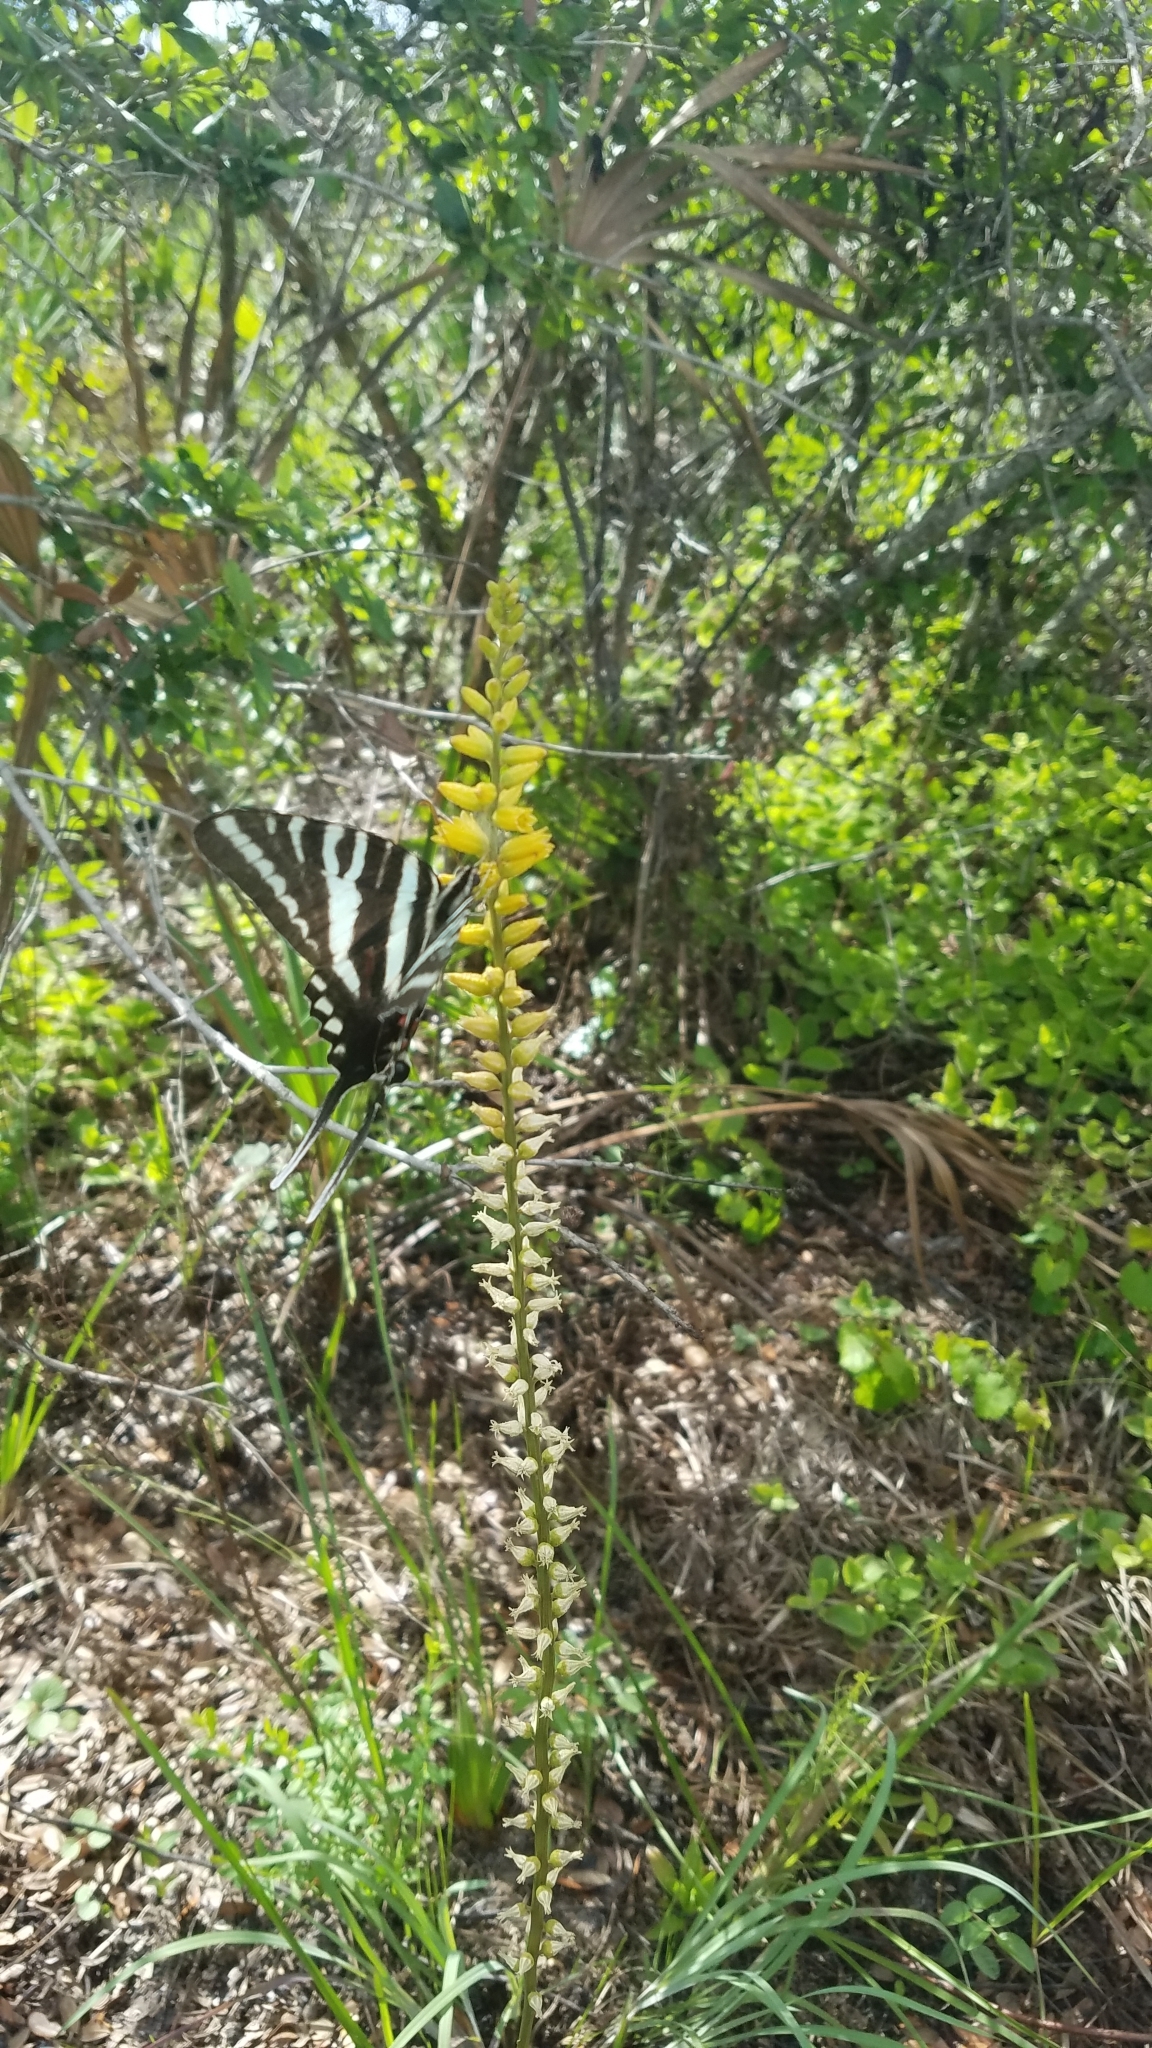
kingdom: Animalia
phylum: Arthropoda
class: Insecta
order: Lepidoptera
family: Papilionidae
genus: Protographium
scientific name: Protographium marcellus
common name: Zebra swallowtail
